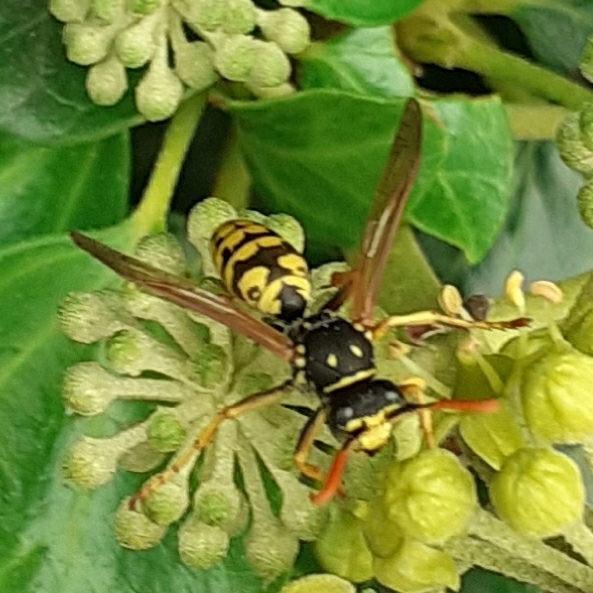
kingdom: Animalia
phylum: Arthropoda
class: Insecta
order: Hymenoptera
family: Eumenidae
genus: Polistes
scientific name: Polistes dominula
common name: Paper wasp
